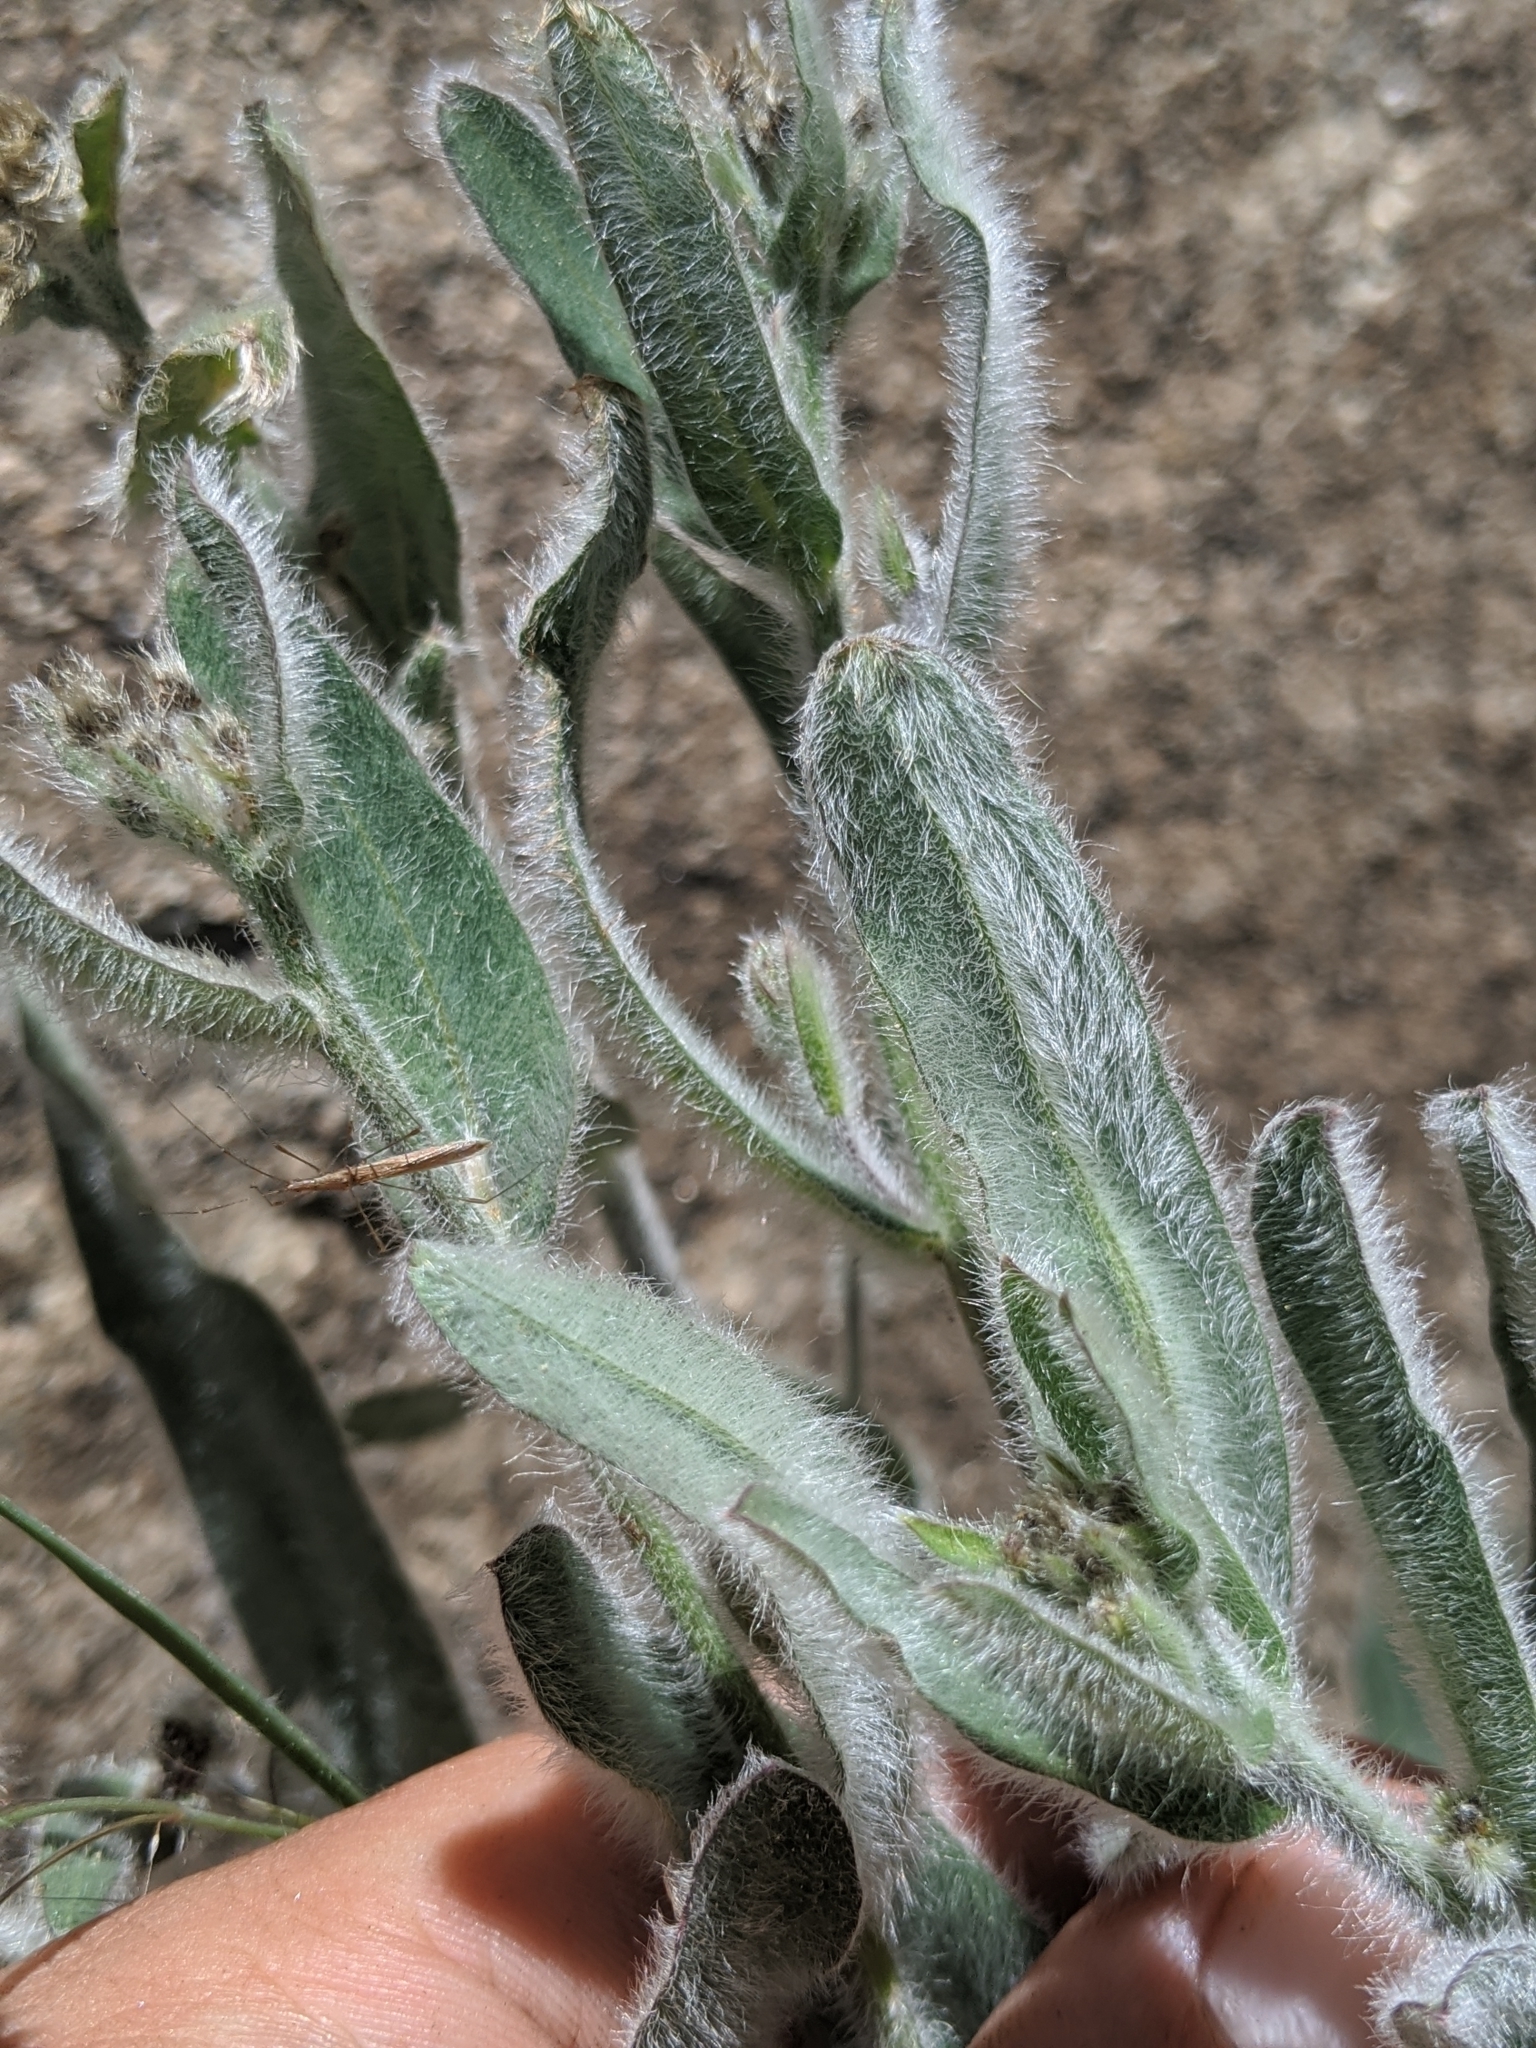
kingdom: Plantae
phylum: Tracheophyta
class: Magnoliopsida
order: Asterales
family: Asteraceae
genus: Hieracium
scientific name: Hieracium horridum
